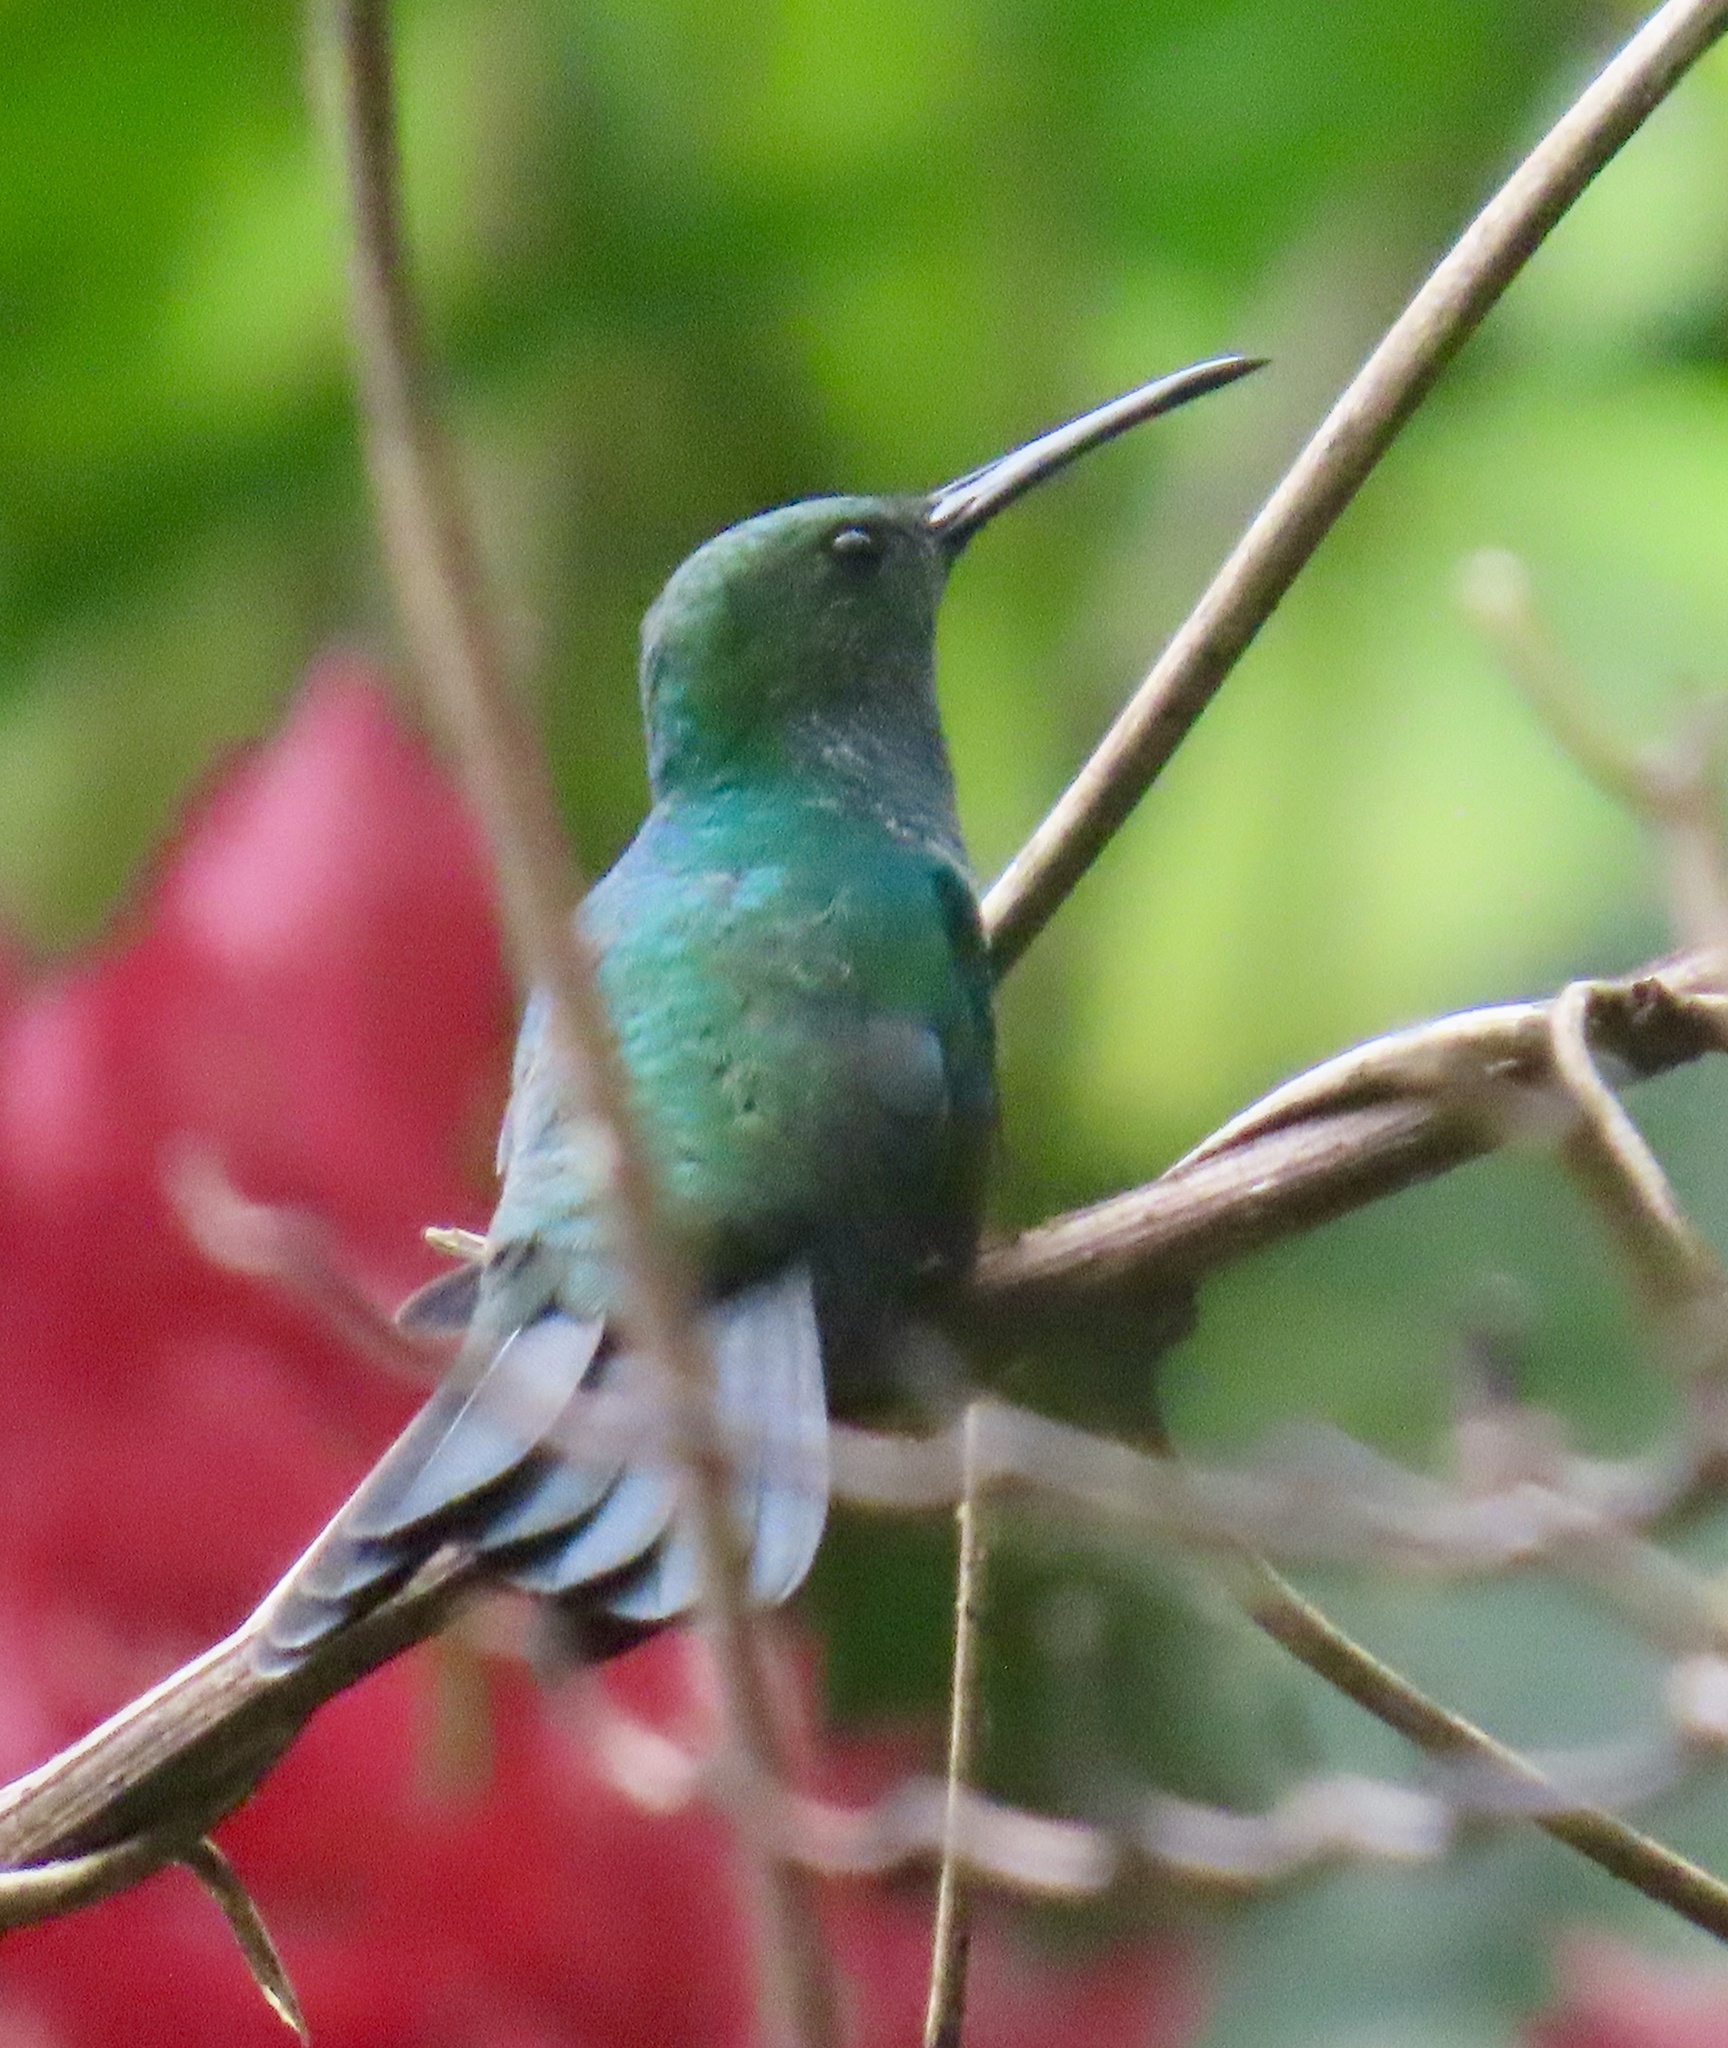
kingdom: Animalia
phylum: Chordata
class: Aves
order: Apodiformes
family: Trochilidae
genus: Chalybura
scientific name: Chalybura buffonii
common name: White-vented plumeleteer
